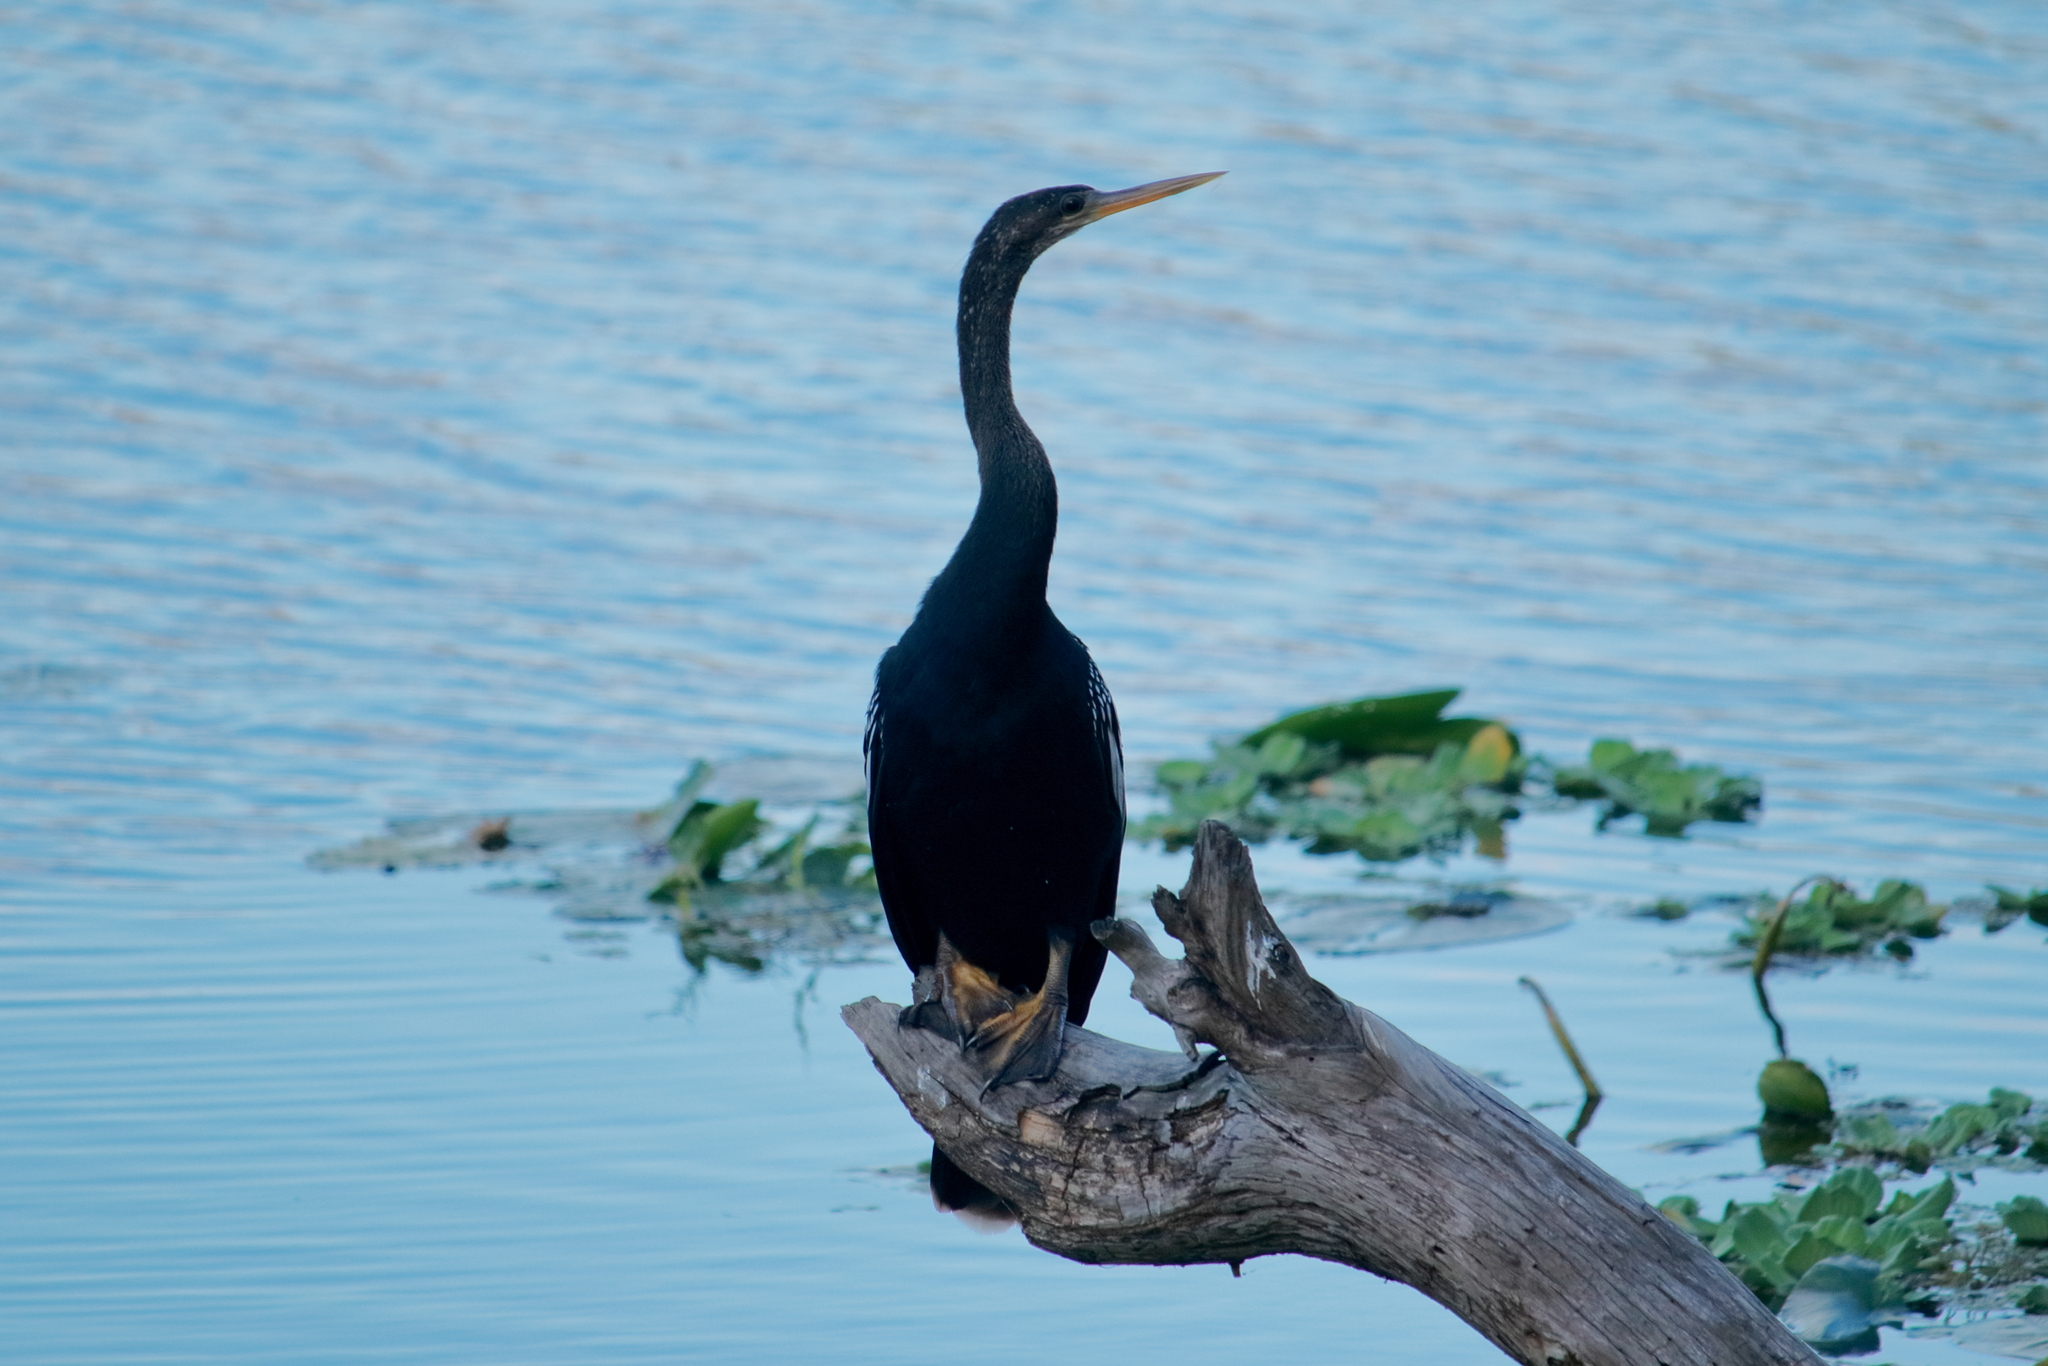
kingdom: Animalia
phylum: Chordata
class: Aves
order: Suliformes
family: Anhingidae
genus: Anhinga
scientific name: Anhinga anhinga
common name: Anhinga
